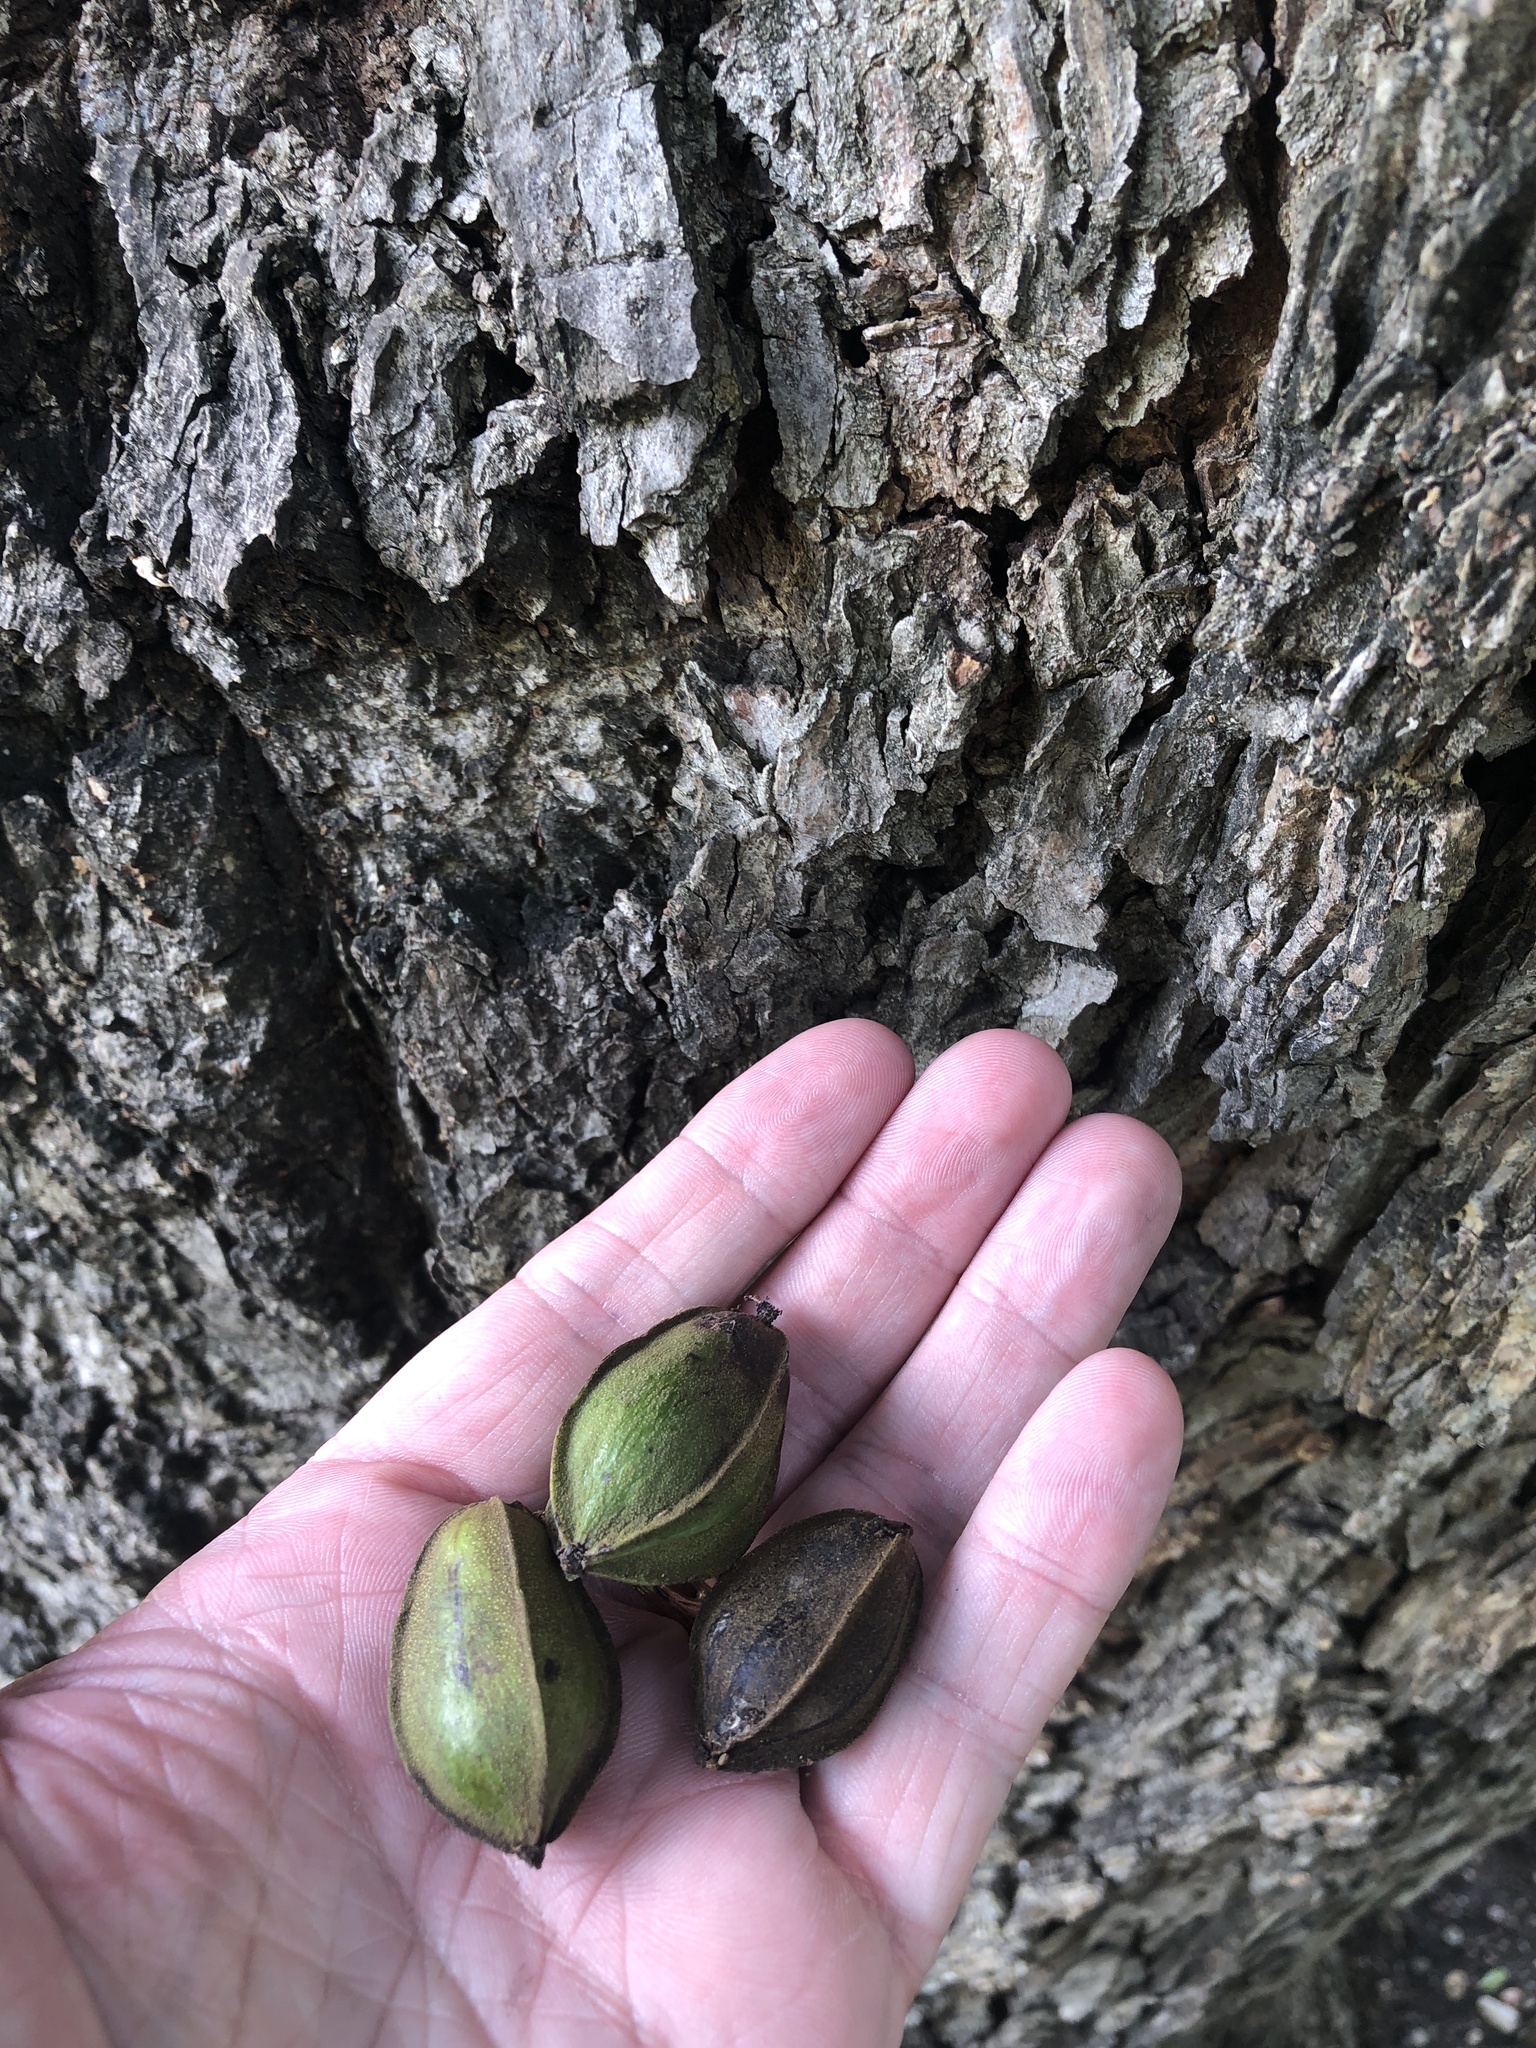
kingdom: Plantae
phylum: Tracheophyta
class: Magnoliopsida
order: Fagales
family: Juglandaceae
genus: Carya
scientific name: Carya illinoinensis
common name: Pecan
